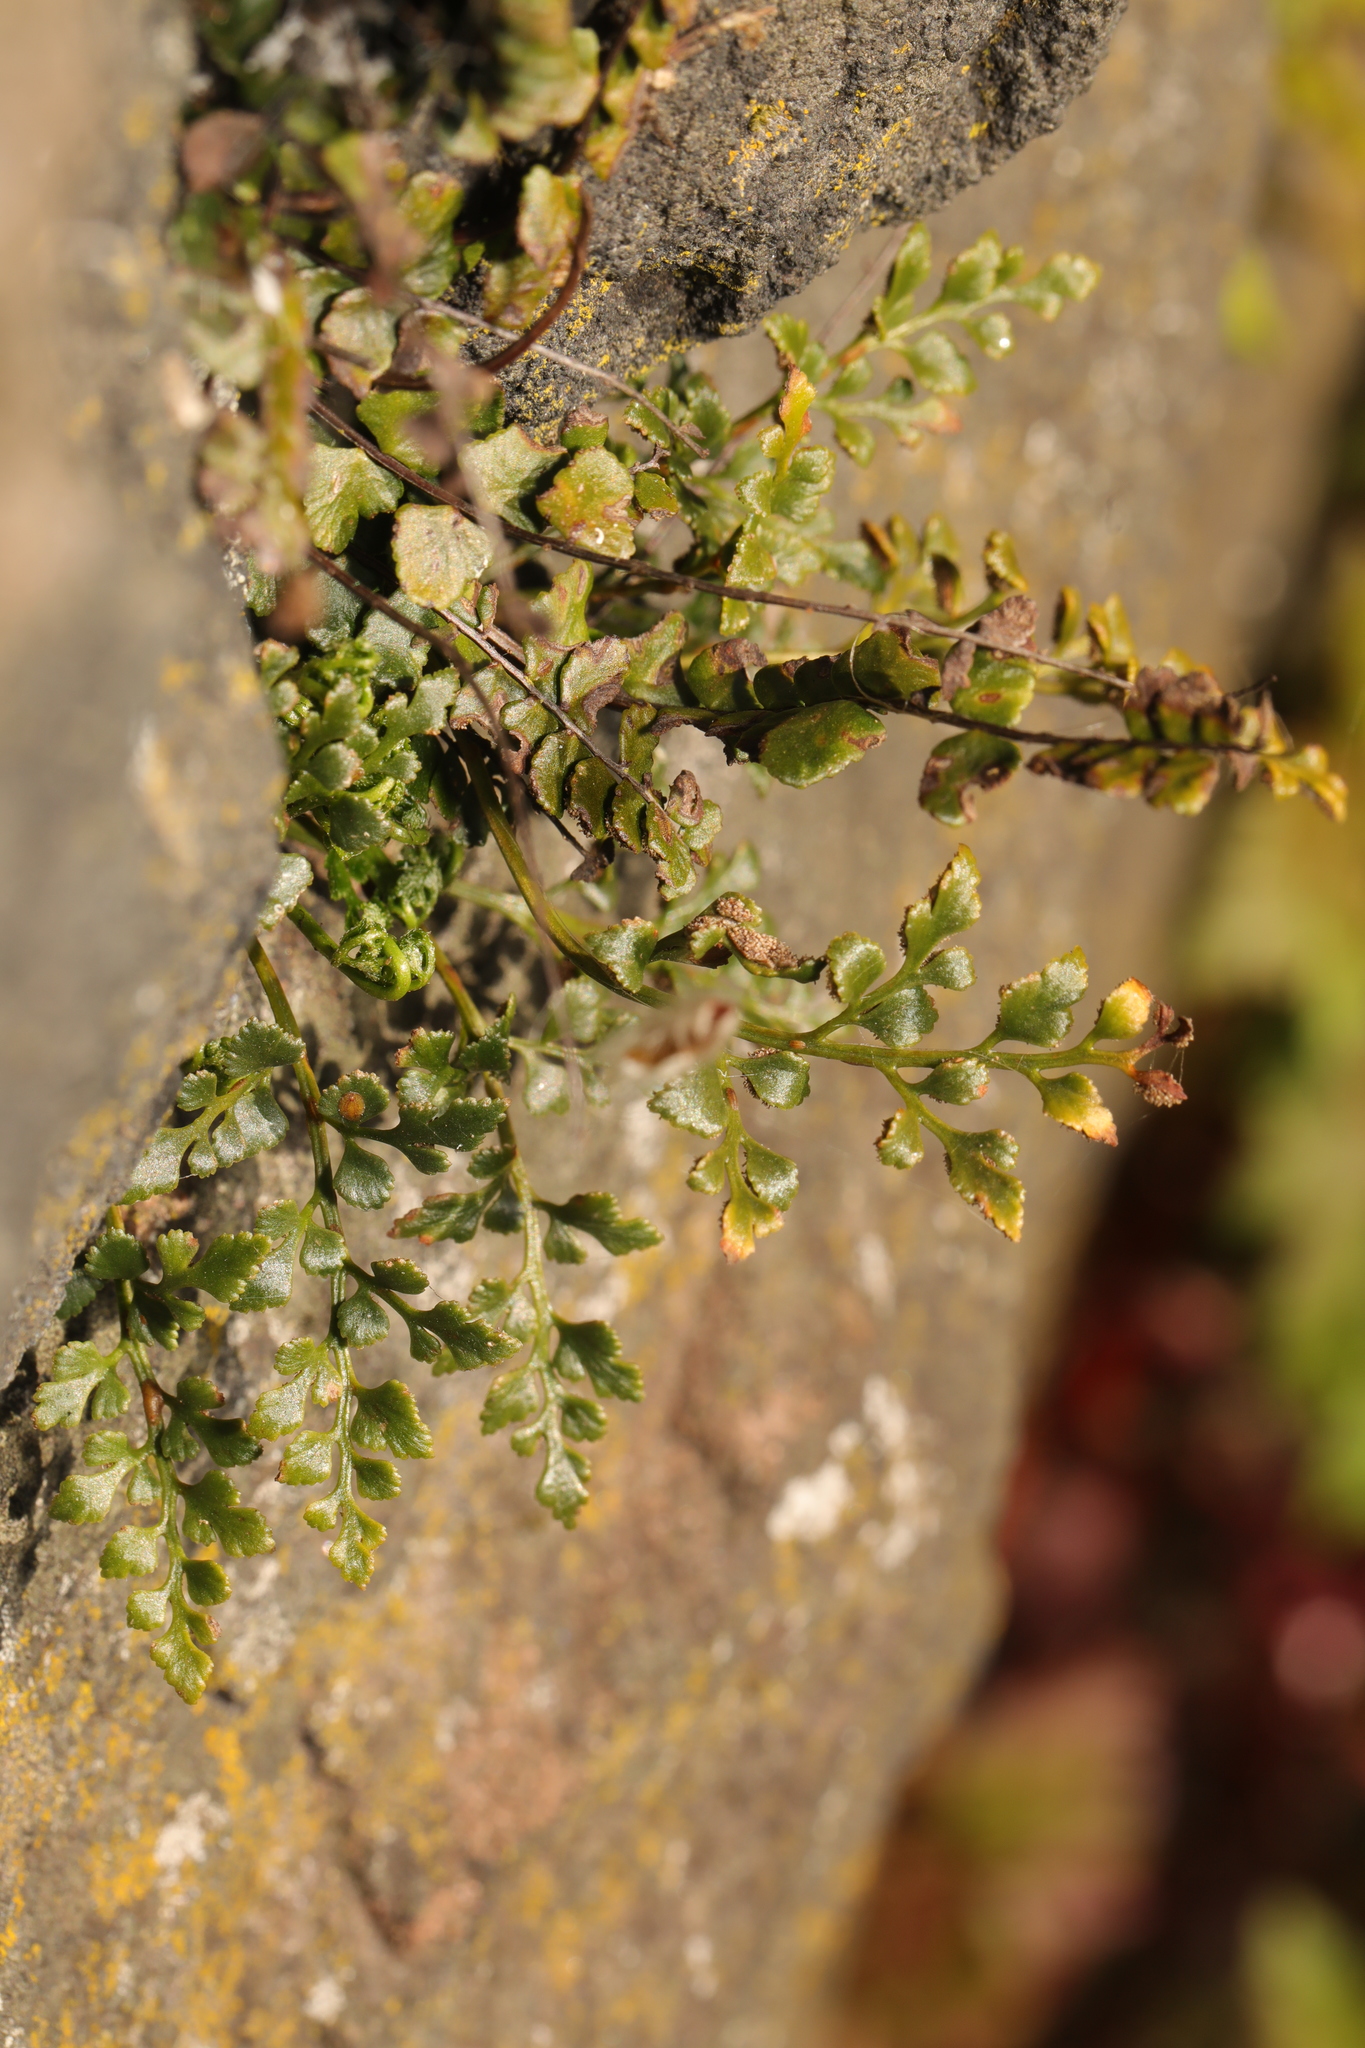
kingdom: Plantae
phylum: Tracheophyta
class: Polypodiopsida
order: Polypodiales
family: Aspleniaceae
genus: Asplenium
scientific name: Asplenium ruta-muraria
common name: Wall-rue
